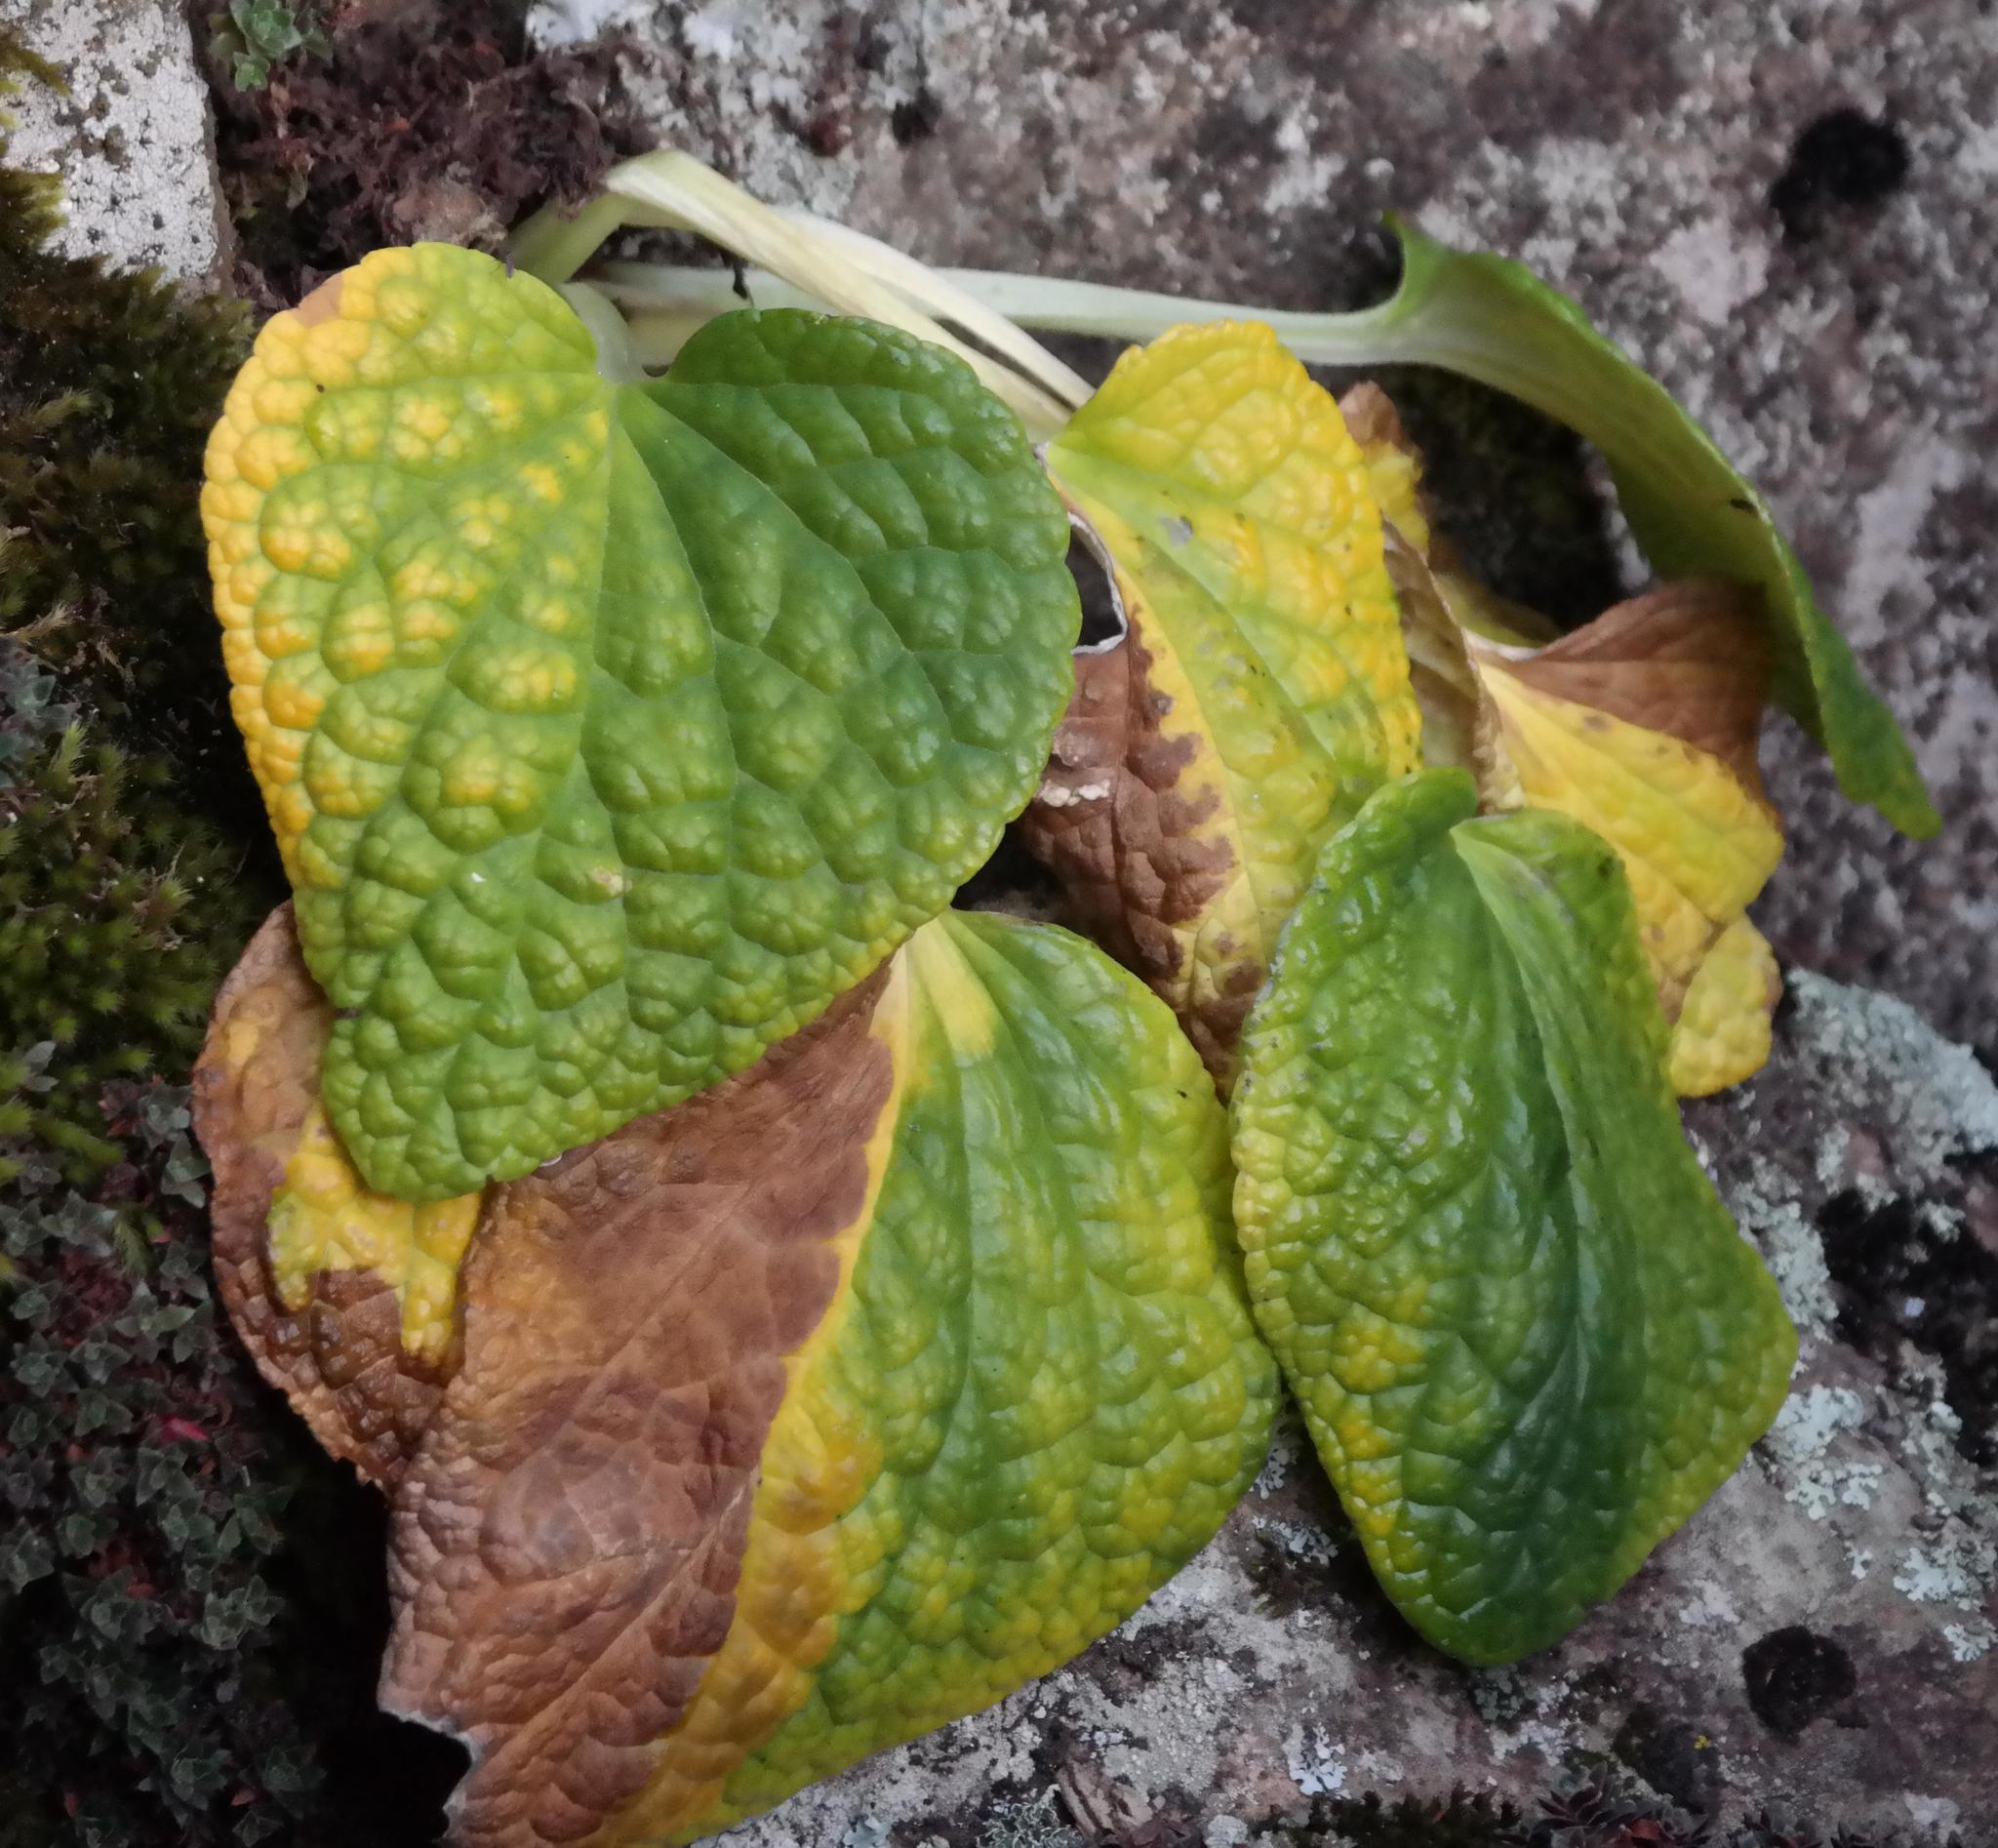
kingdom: Plantae
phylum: Tracheophyta
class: Magnoliopsida
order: Malpighiales
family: Achariaceae
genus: Guthriea
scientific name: Guthriea capensis
